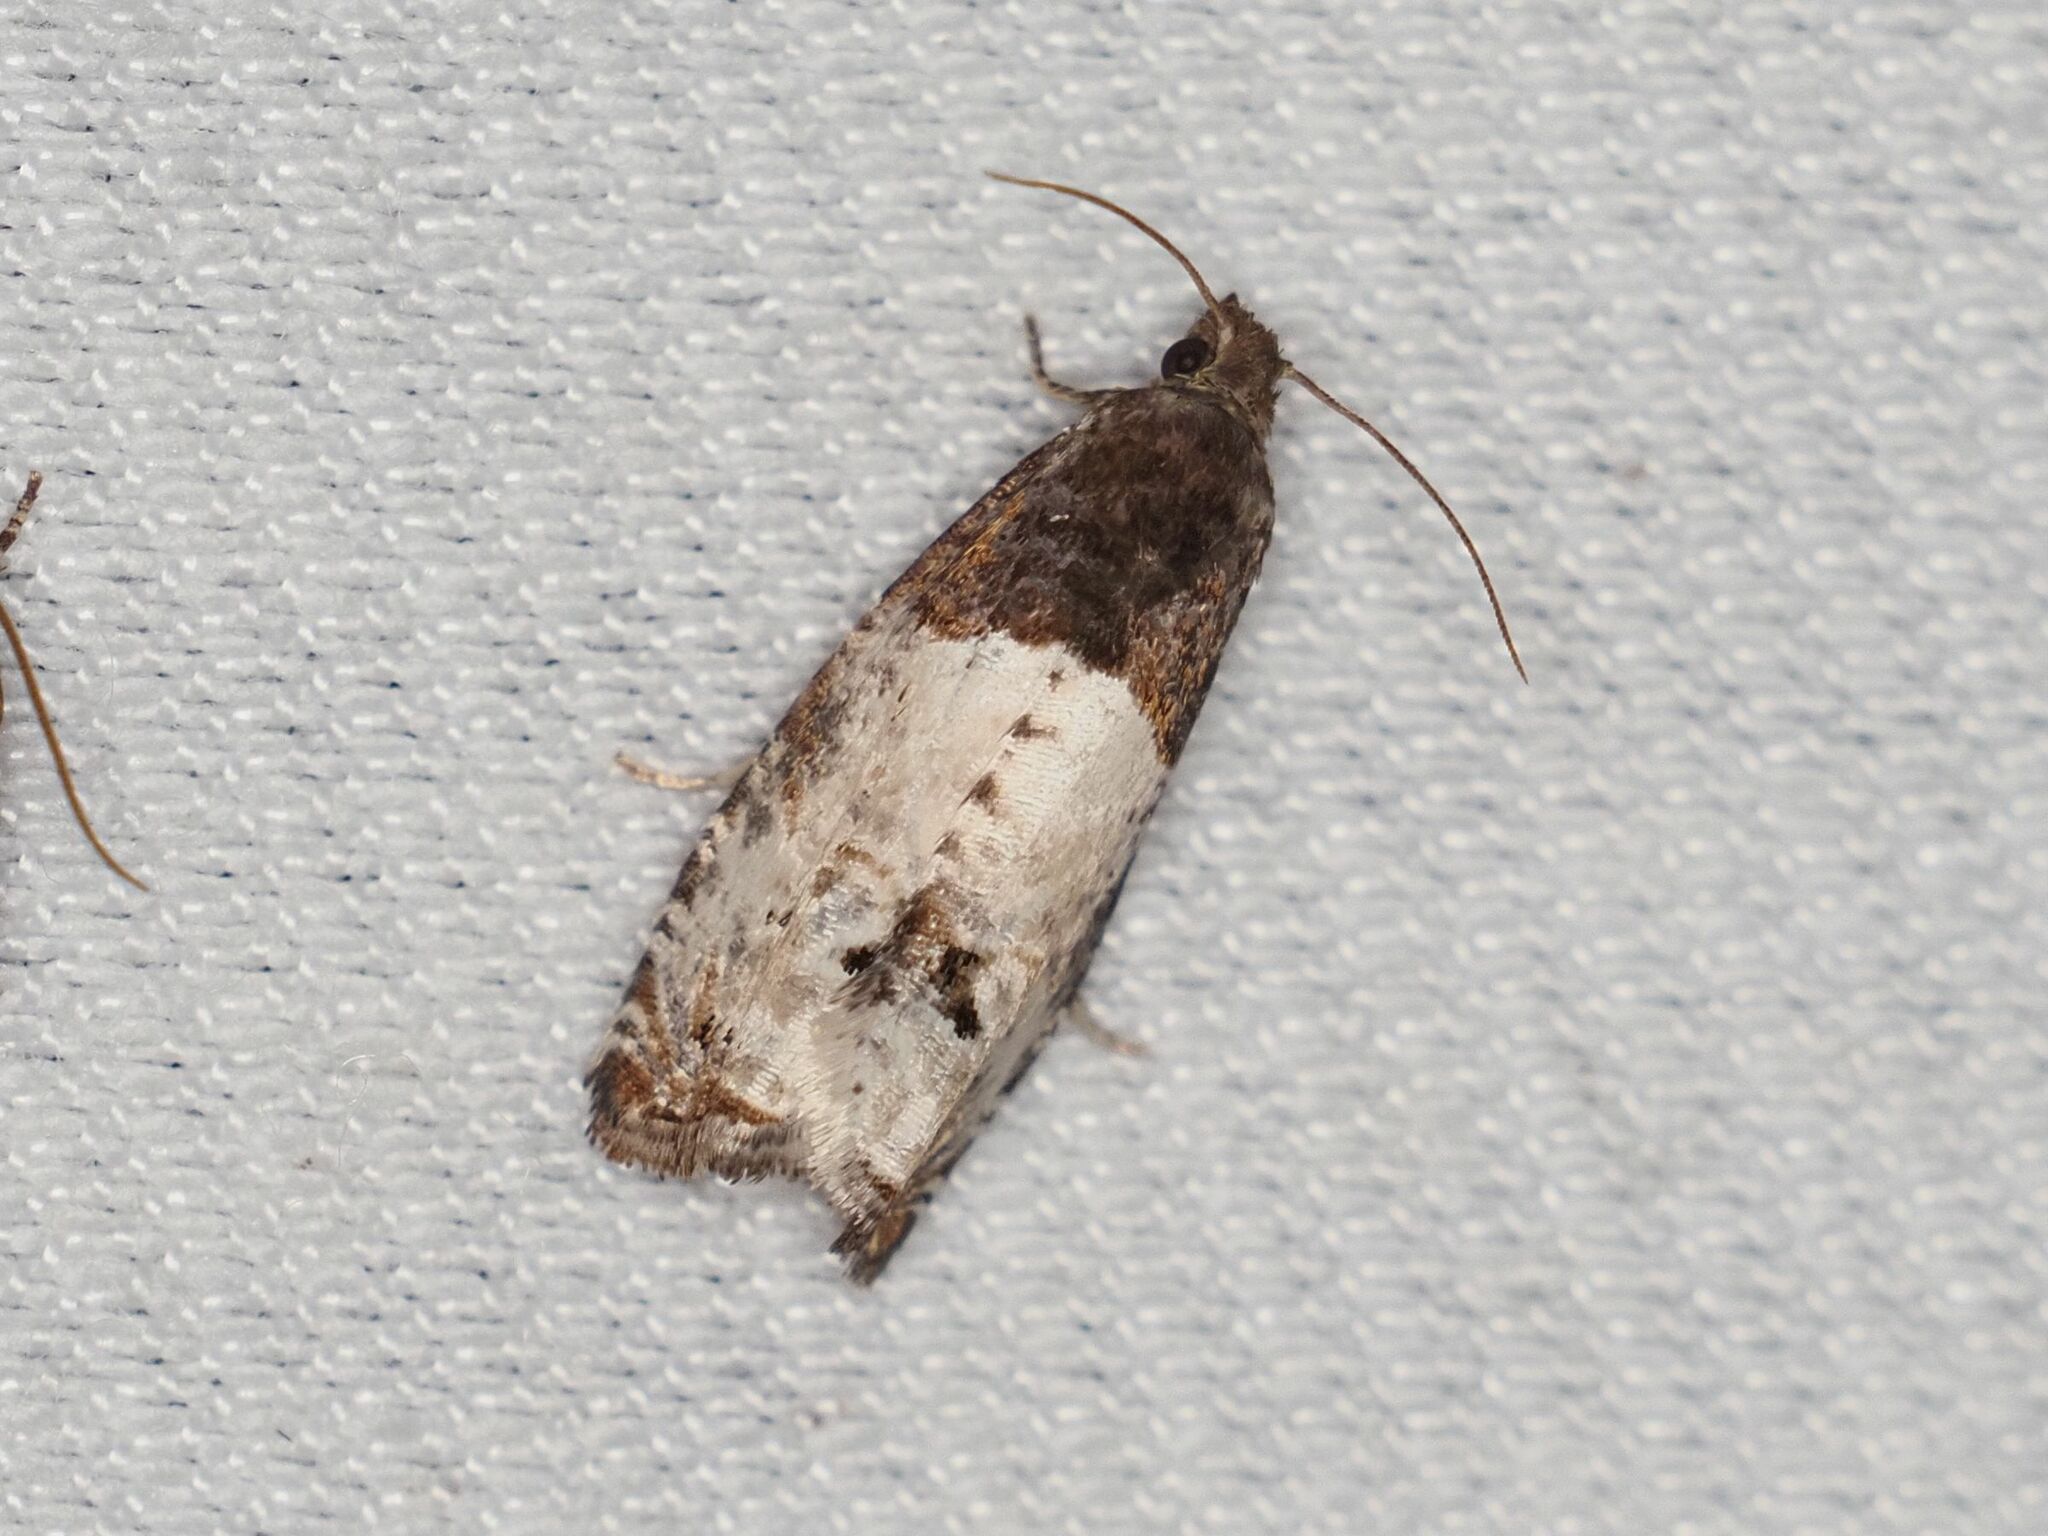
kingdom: Animalia
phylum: Arthropoda
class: Insecta
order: Lepidoptera
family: Tortricidae
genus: Epiblema
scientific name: Epiblema aquana
